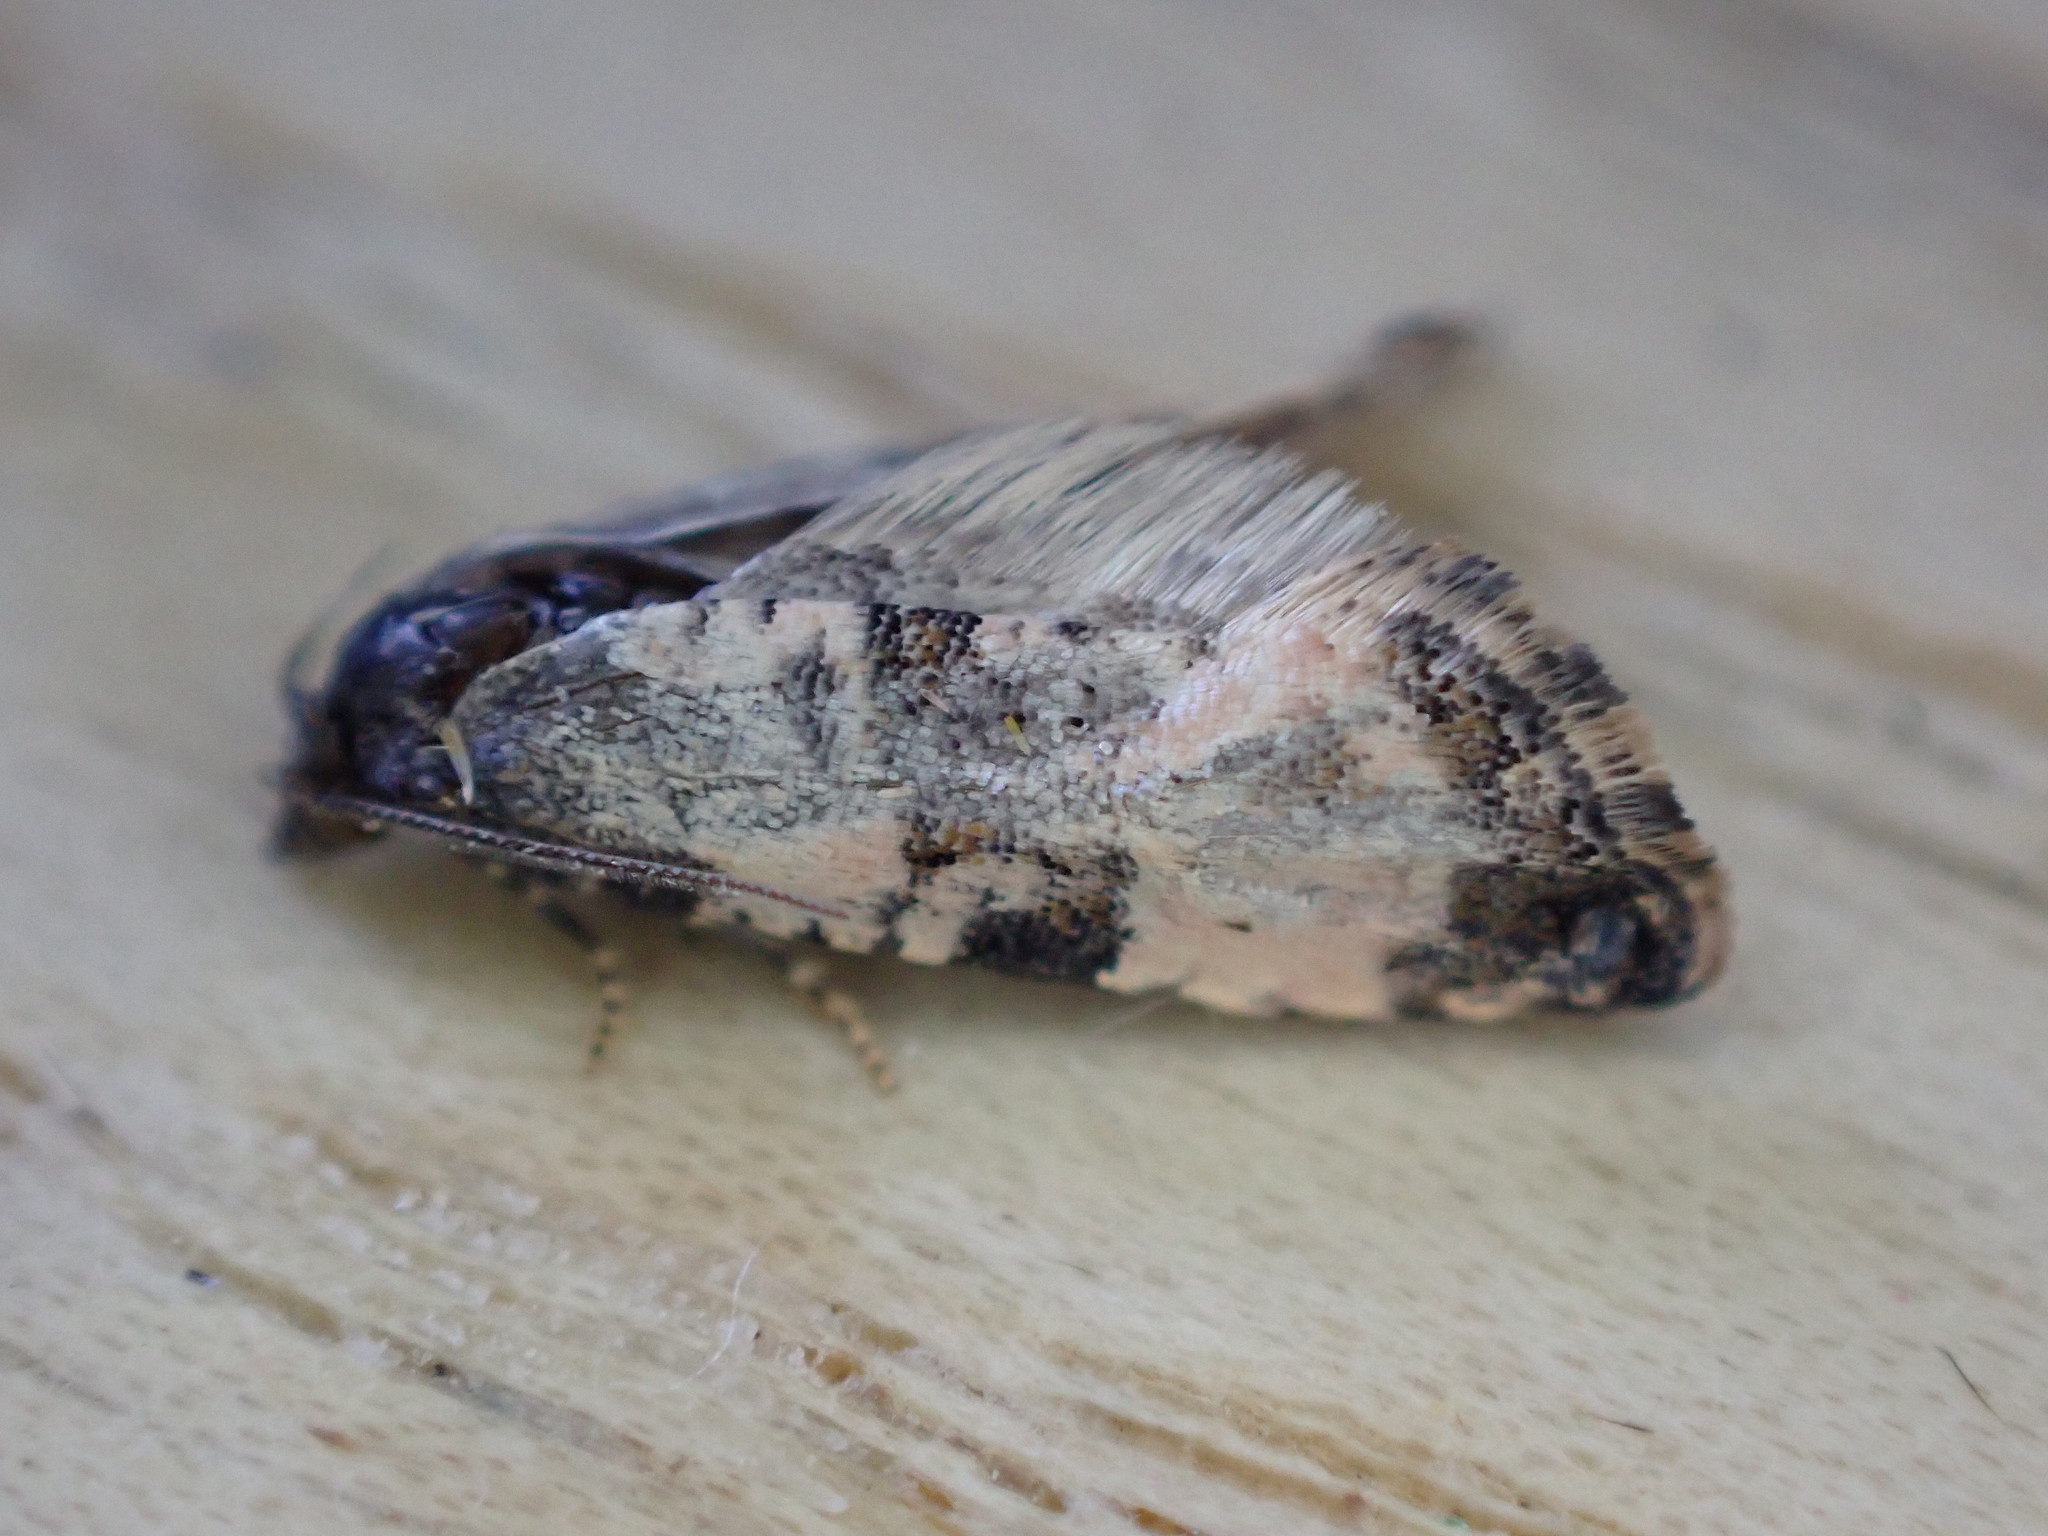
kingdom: Animalia
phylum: Arthropoda
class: Insecta
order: Lepidoptera
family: Tortricidae
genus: Cochylis
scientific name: Cochylis atricapitana
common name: Tortricid moth
